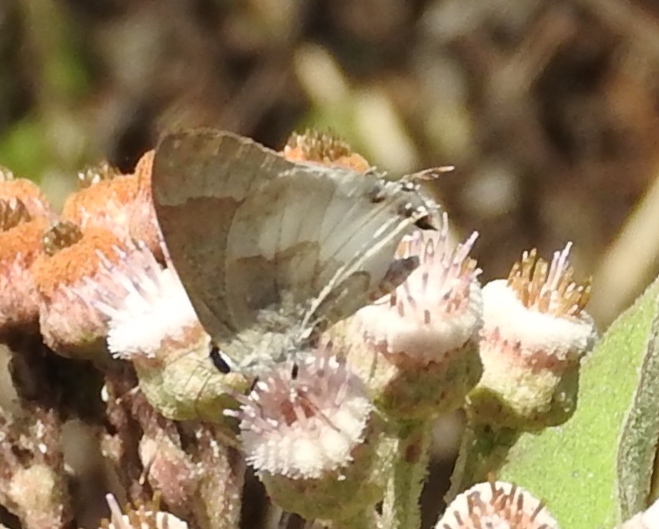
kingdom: Animalia
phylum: Arthropoda
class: Insecta
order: Lepidoptera
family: Lycaenidae
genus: Strymon
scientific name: Strymon albata
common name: White scrub-hairstreak
